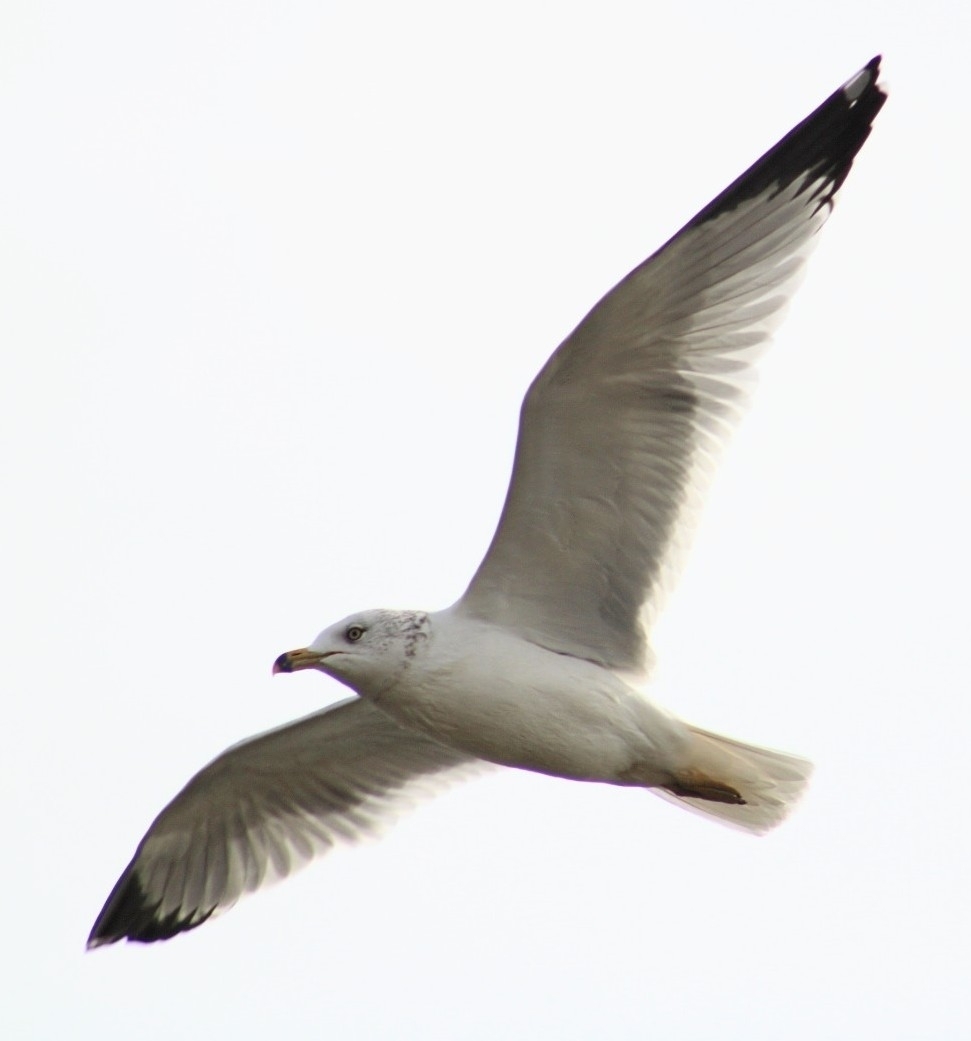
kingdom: Animalia
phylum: Chordata
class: Aves
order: Charadriiformes
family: Laridae
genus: Larus
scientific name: Larus delawarensis
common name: Ring-billed gull
